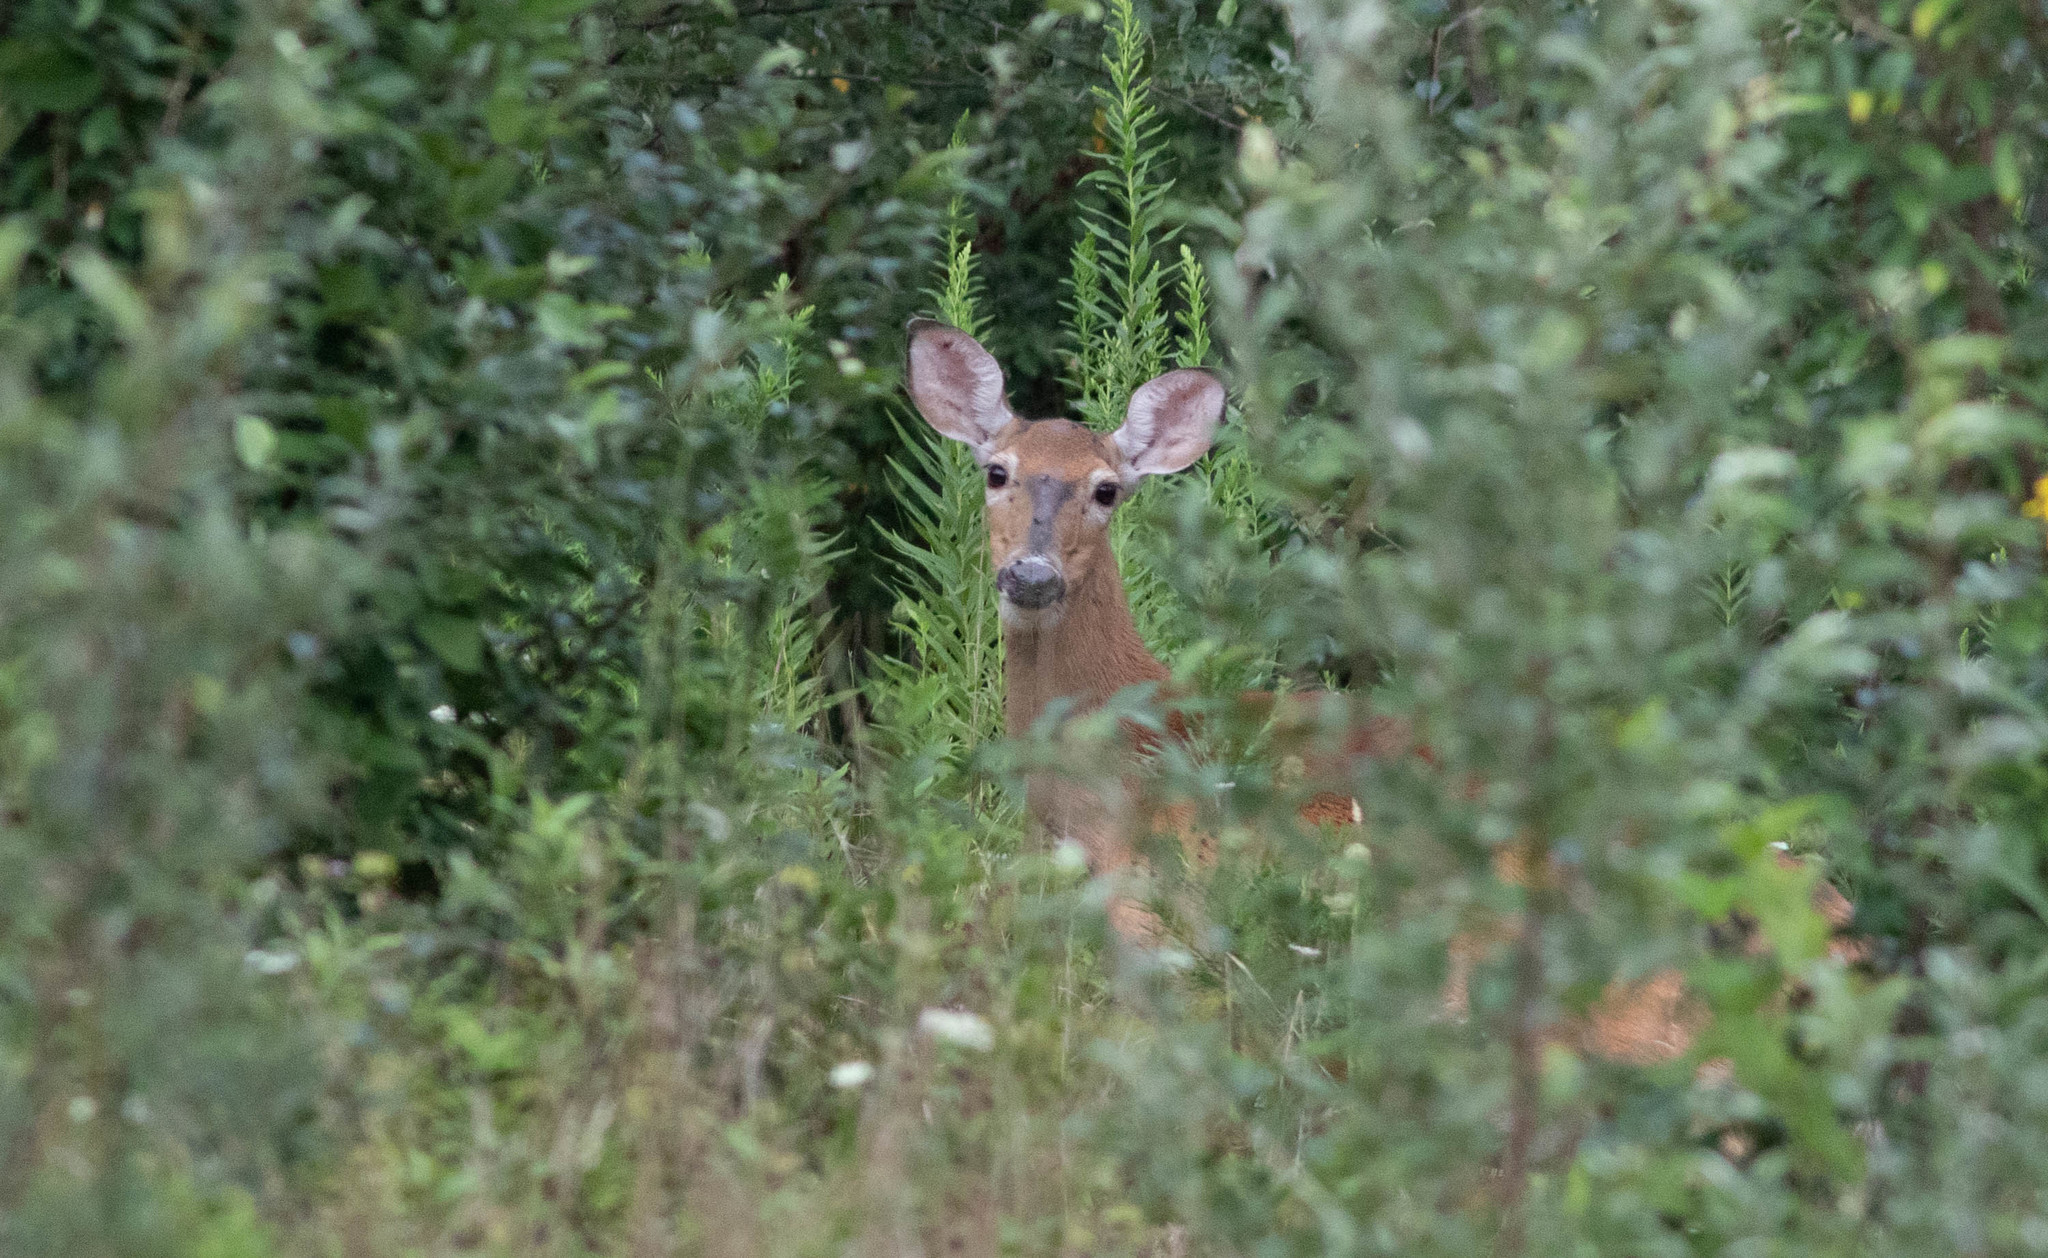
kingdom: Animalia
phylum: Chordata
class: Mammalia
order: Artiodactyla
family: Cervidae
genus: Odocoileus
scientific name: Odocoileus virginianus
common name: White-tailed deer
